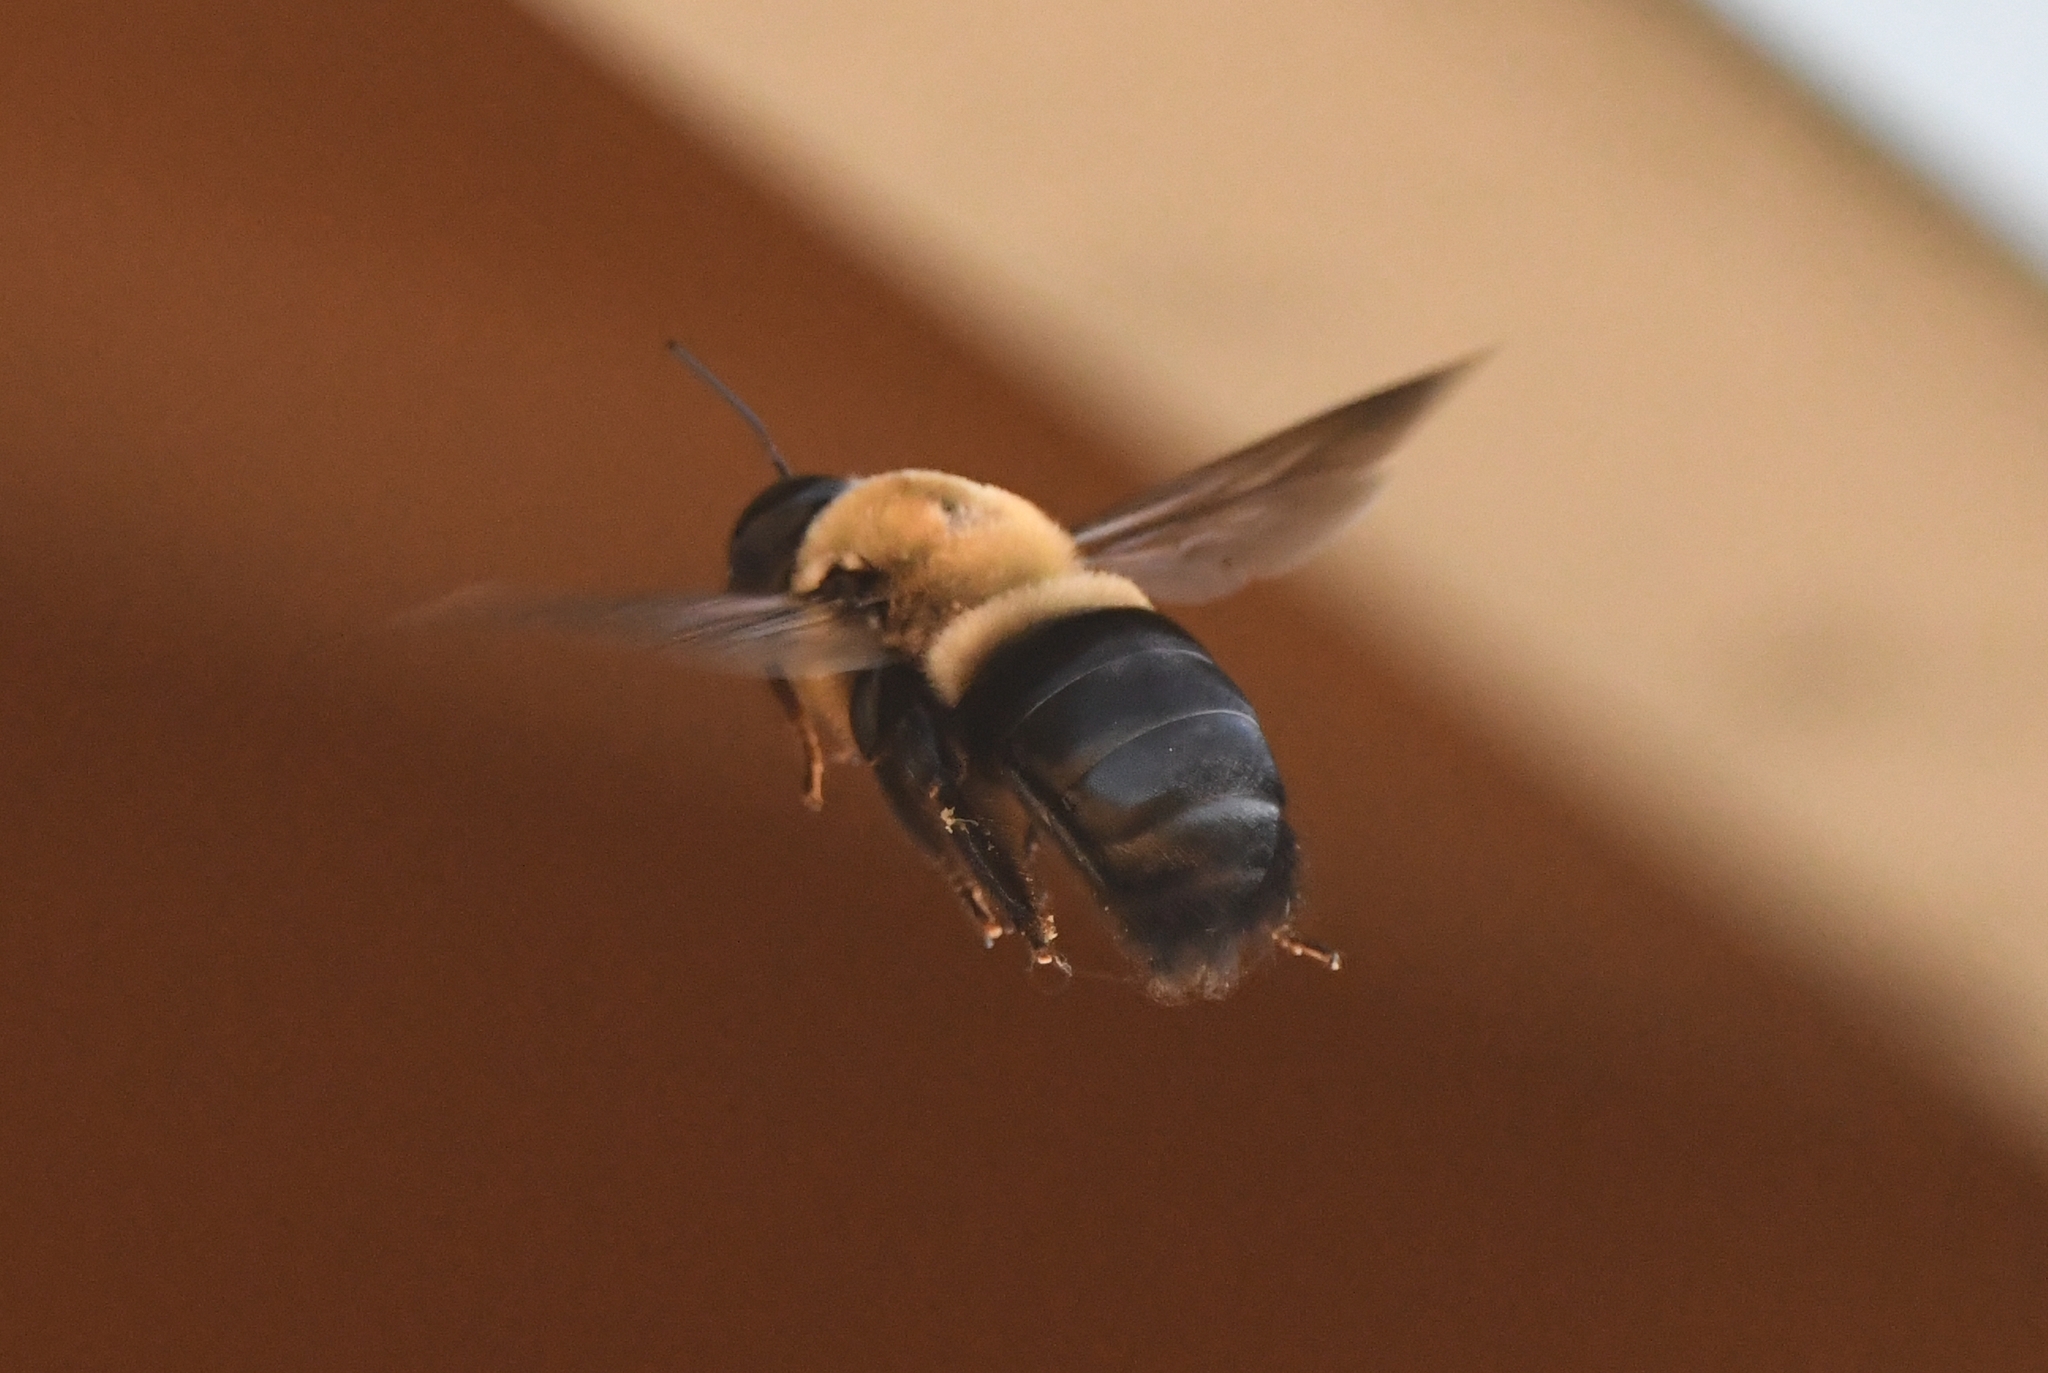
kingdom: Animalia
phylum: Arthropoda
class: Insecta
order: Hymenoptera
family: Apidae
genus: Xylocopa
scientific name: Xylocopa virginica
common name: Carpenter bee
